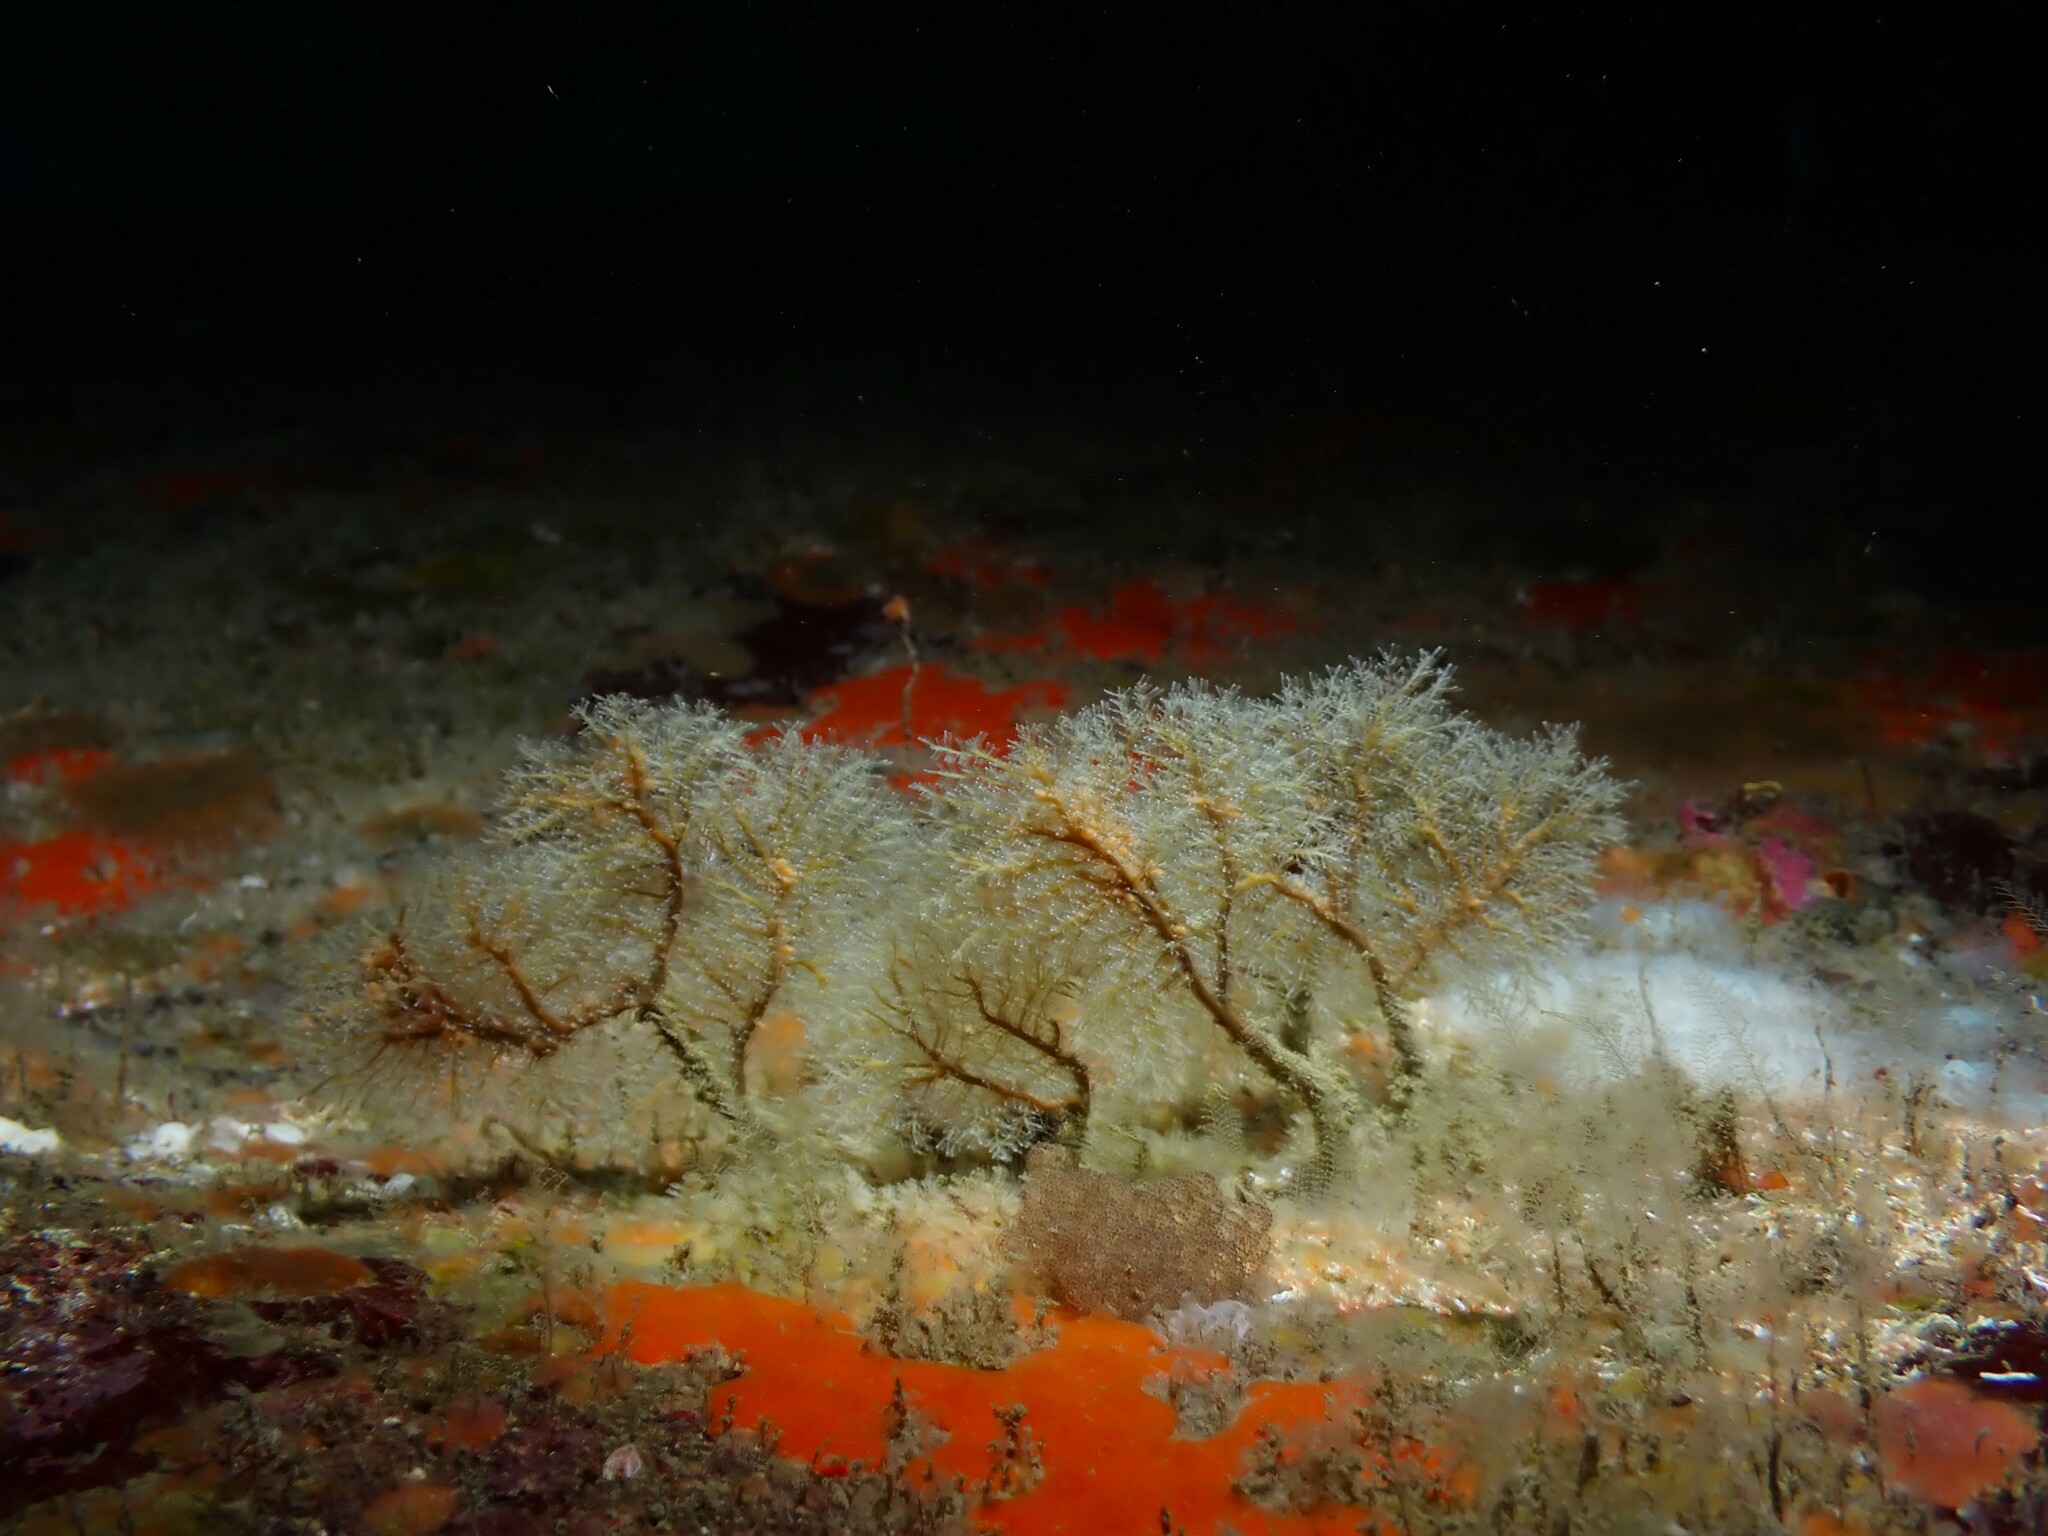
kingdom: Animalia
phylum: Cnidaria
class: Hydrozoa
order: Anthoathecata
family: Solanderiidae
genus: Solanderia
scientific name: Solanderia ericopsis
